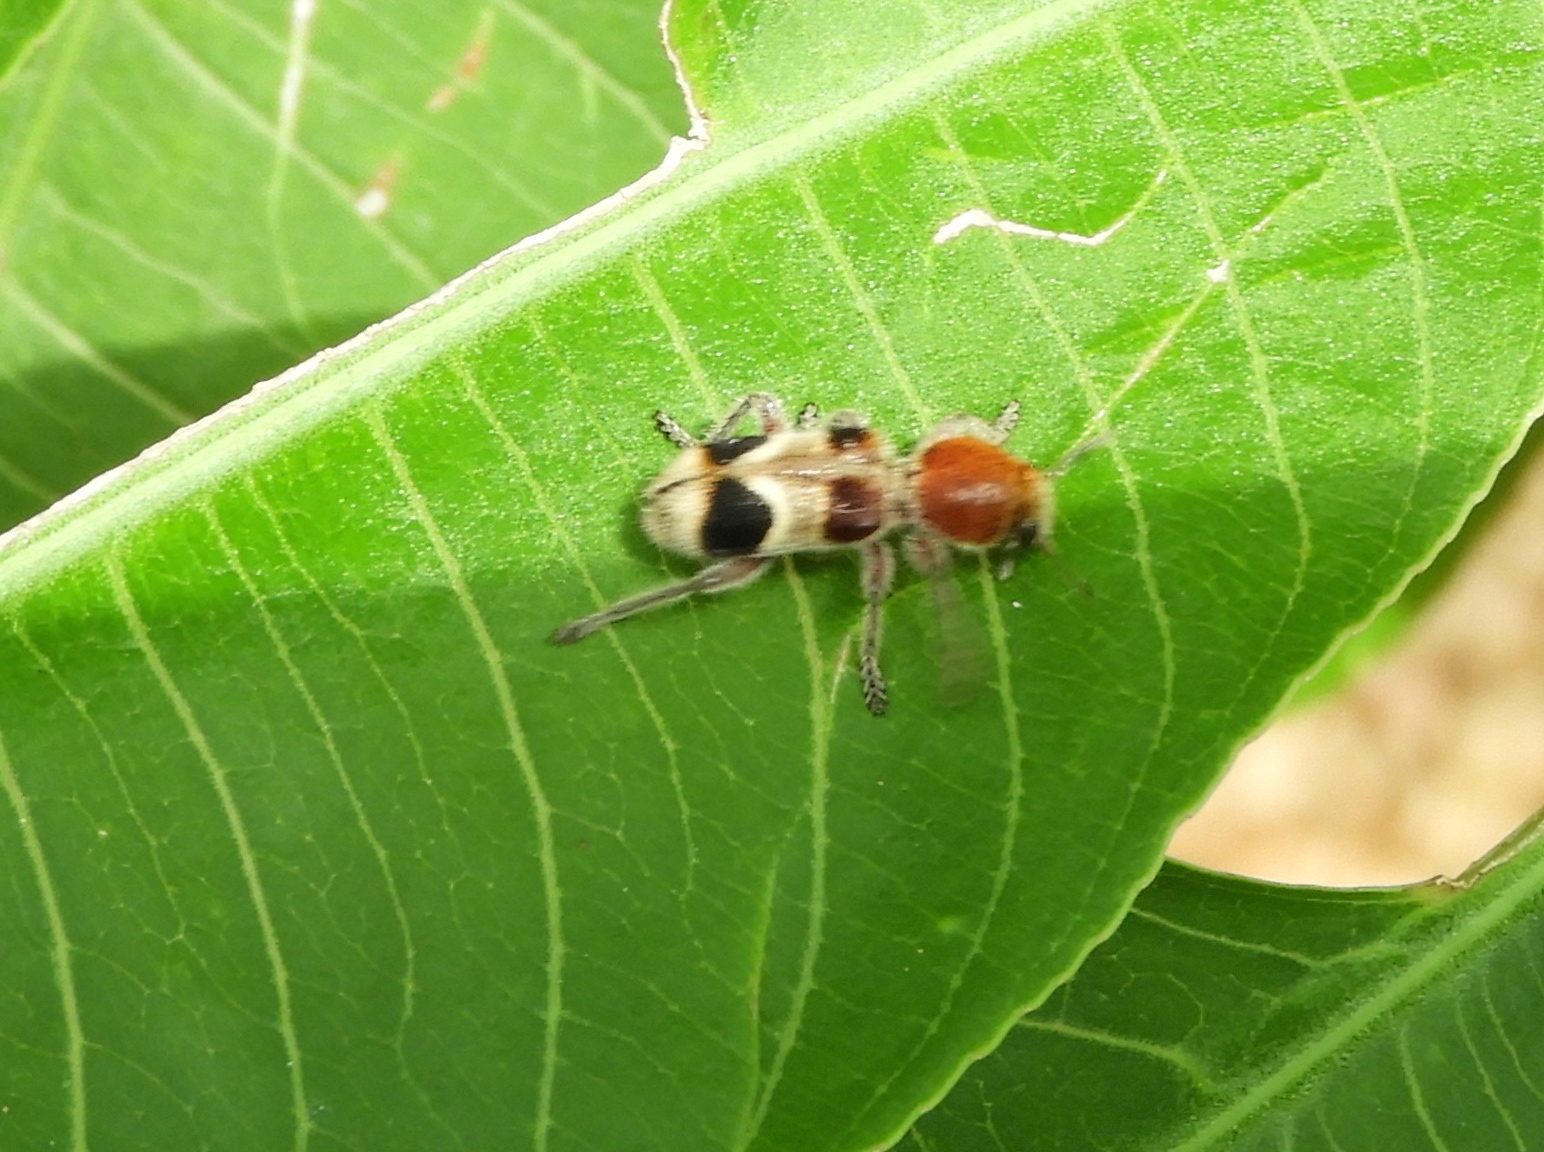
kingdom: Animalia
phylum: Arthropoda
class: Insecta
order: Coleoptera
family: Cleridae
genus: Enoclerus
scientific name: Enoclerus quadriguttatus
